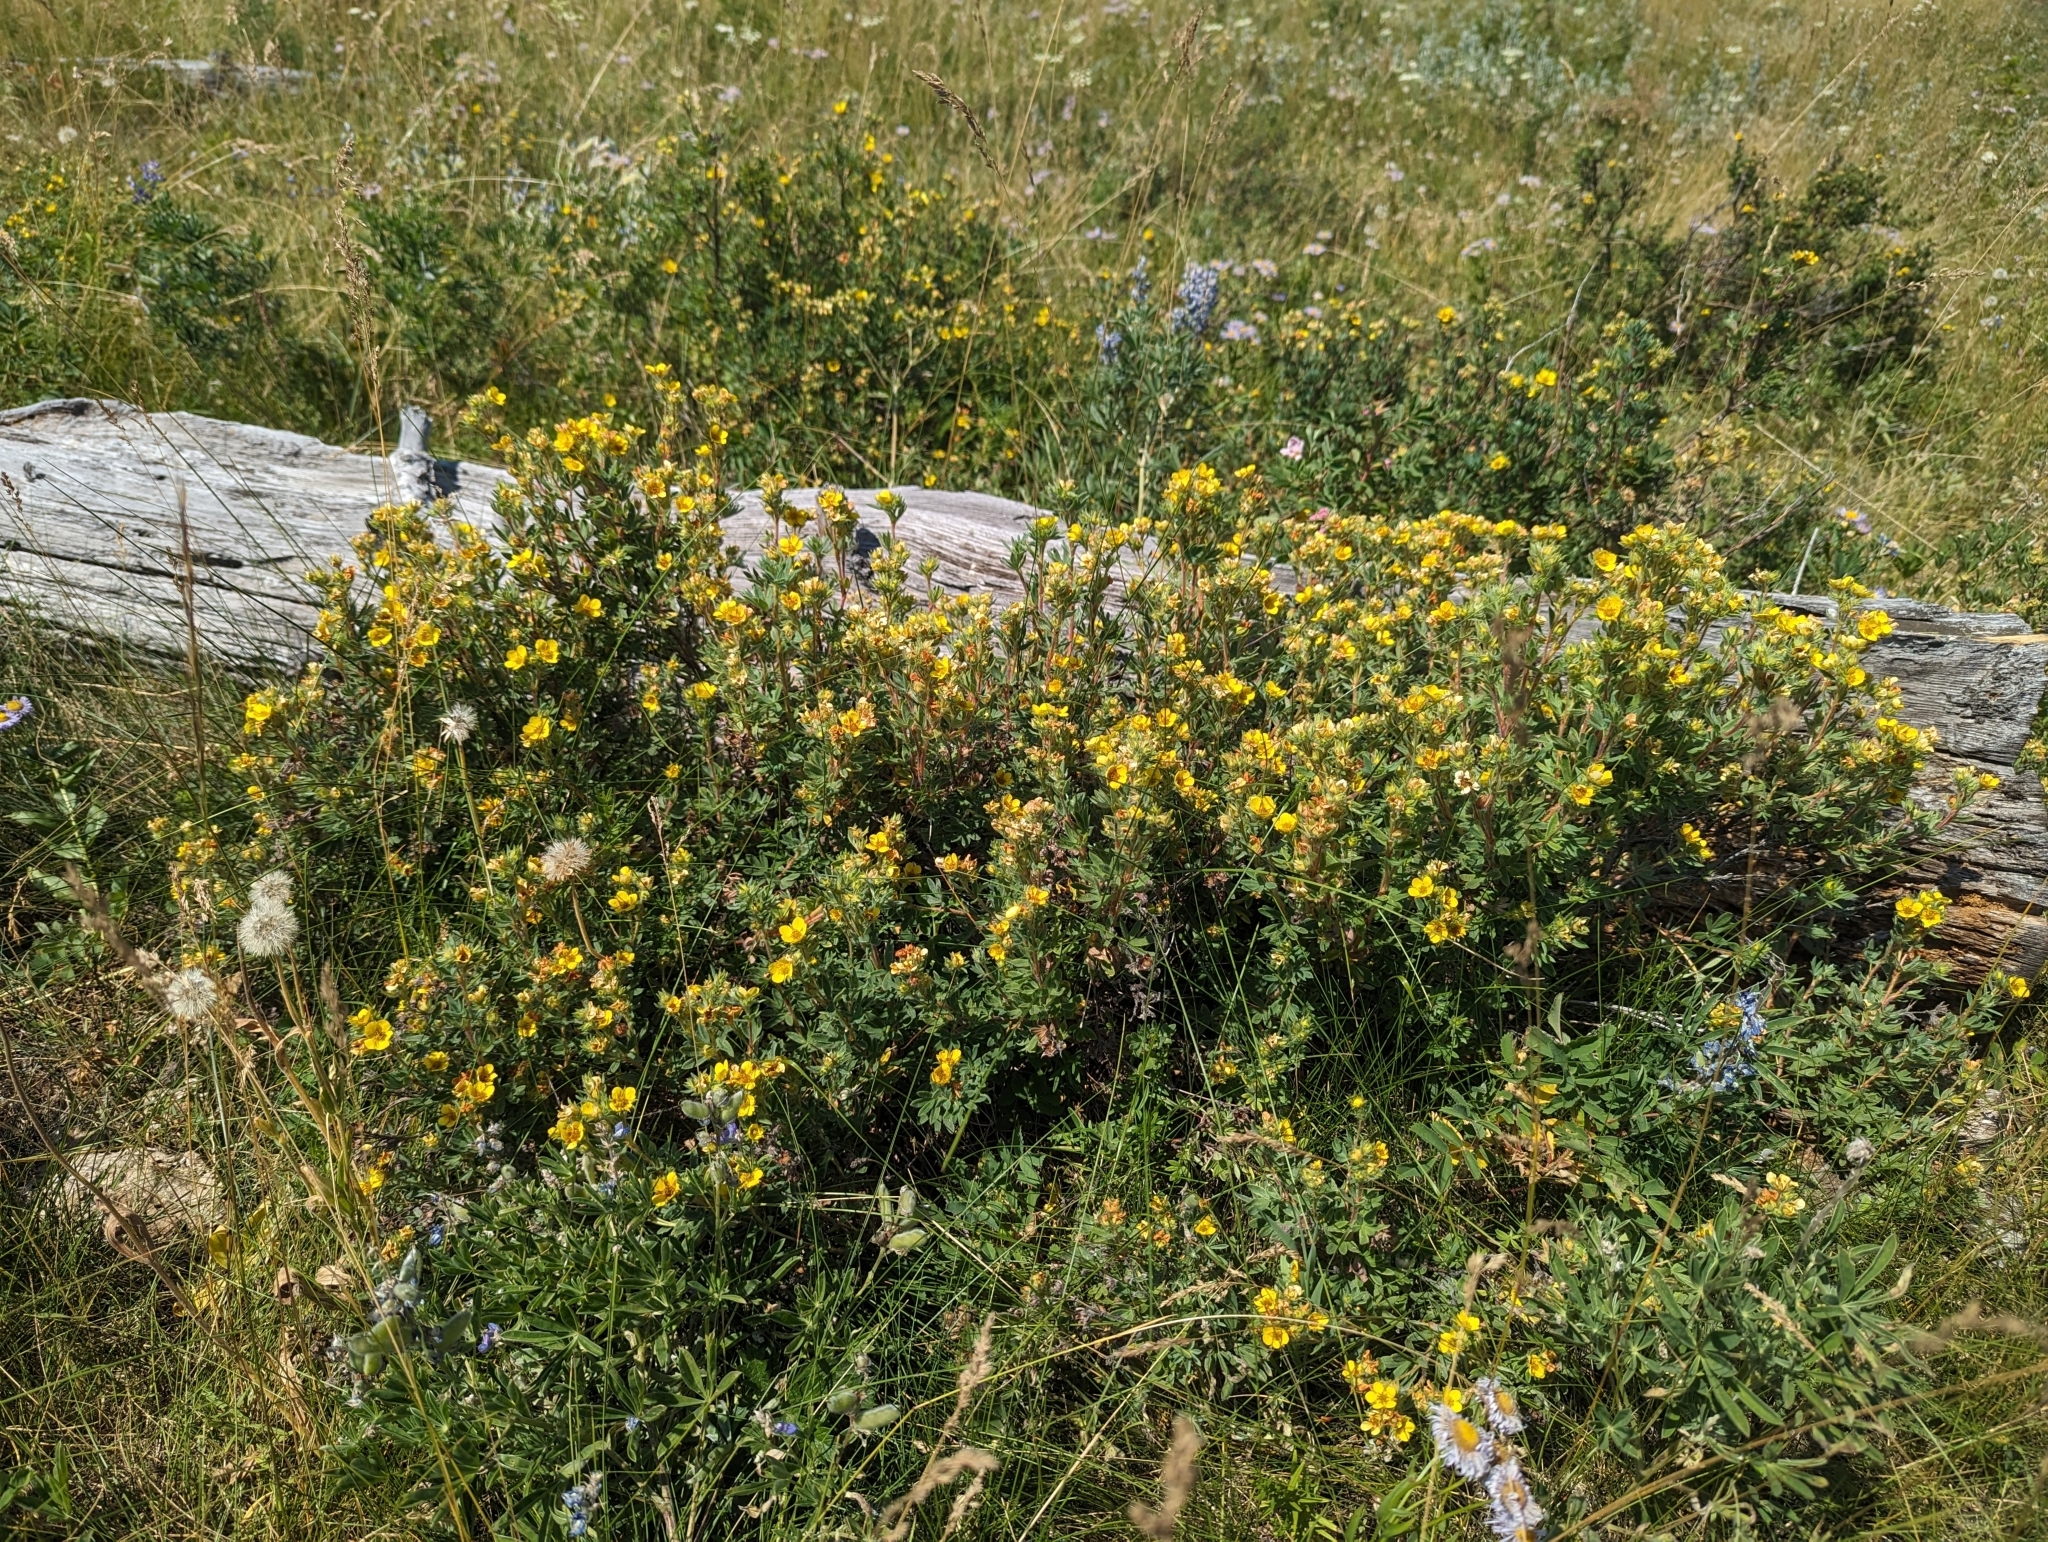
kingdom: Plantae
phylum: Tracheophyta
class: Magnoliopsida
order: Rosales
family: Rosaceae
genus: Dasiphora
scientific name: Dasiphora fruticosa
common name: Shrubby cinquefoil
